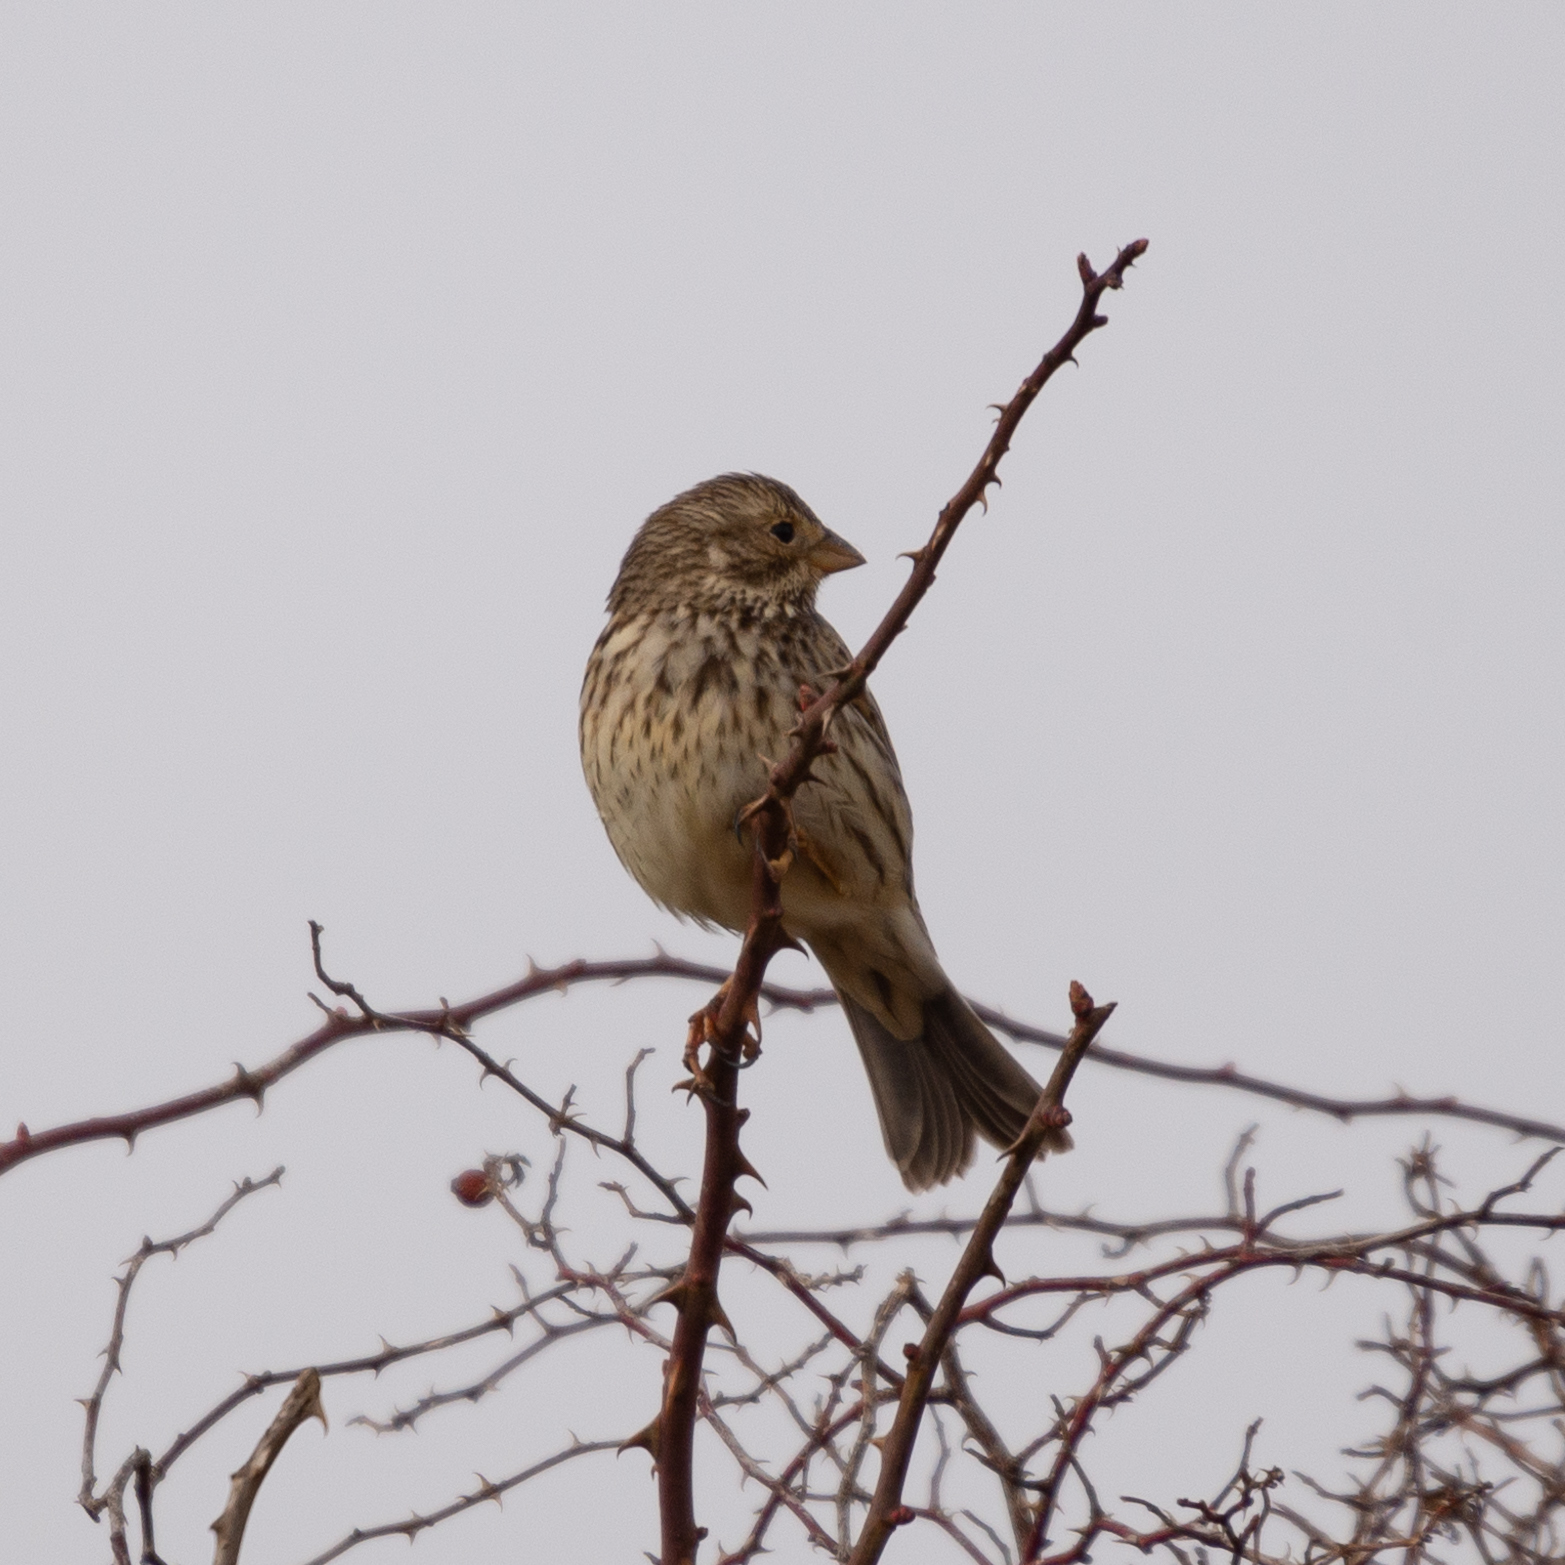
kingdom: Animalia
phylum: Chordata
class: Aves
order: Passeriformes
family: Emberizidae
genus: Emberiza
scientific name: Emberiza calandra
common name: Corn bunting
